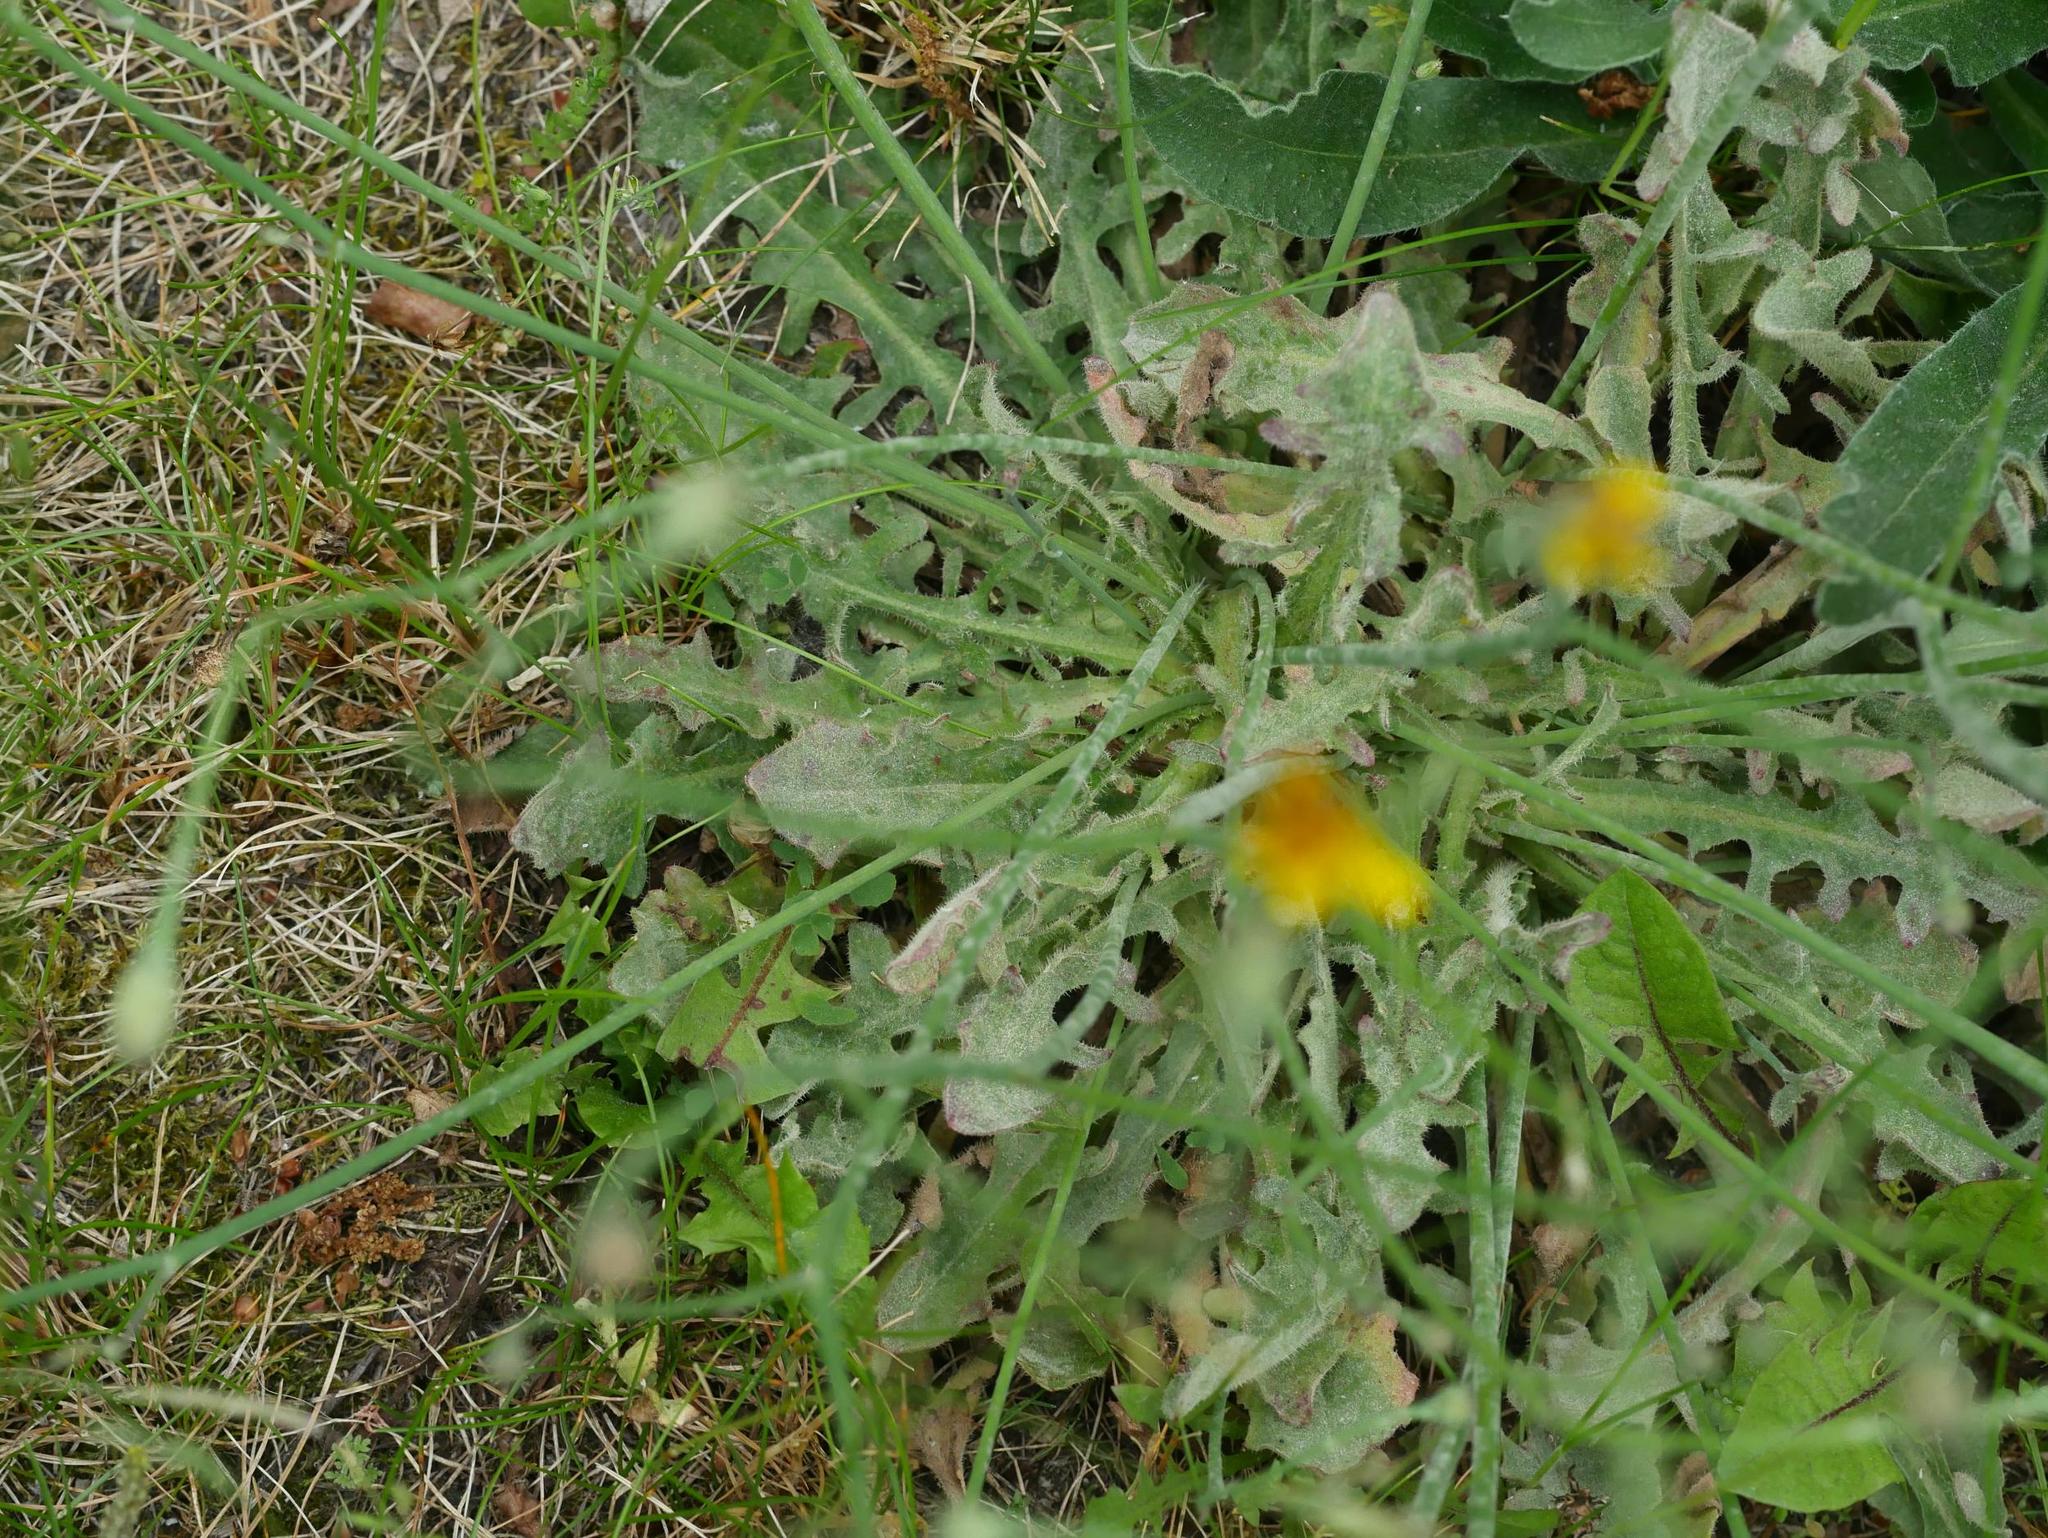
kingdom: Plantae
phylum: Tracheophyta
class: Magnoliopsida
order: Asterales
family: Asteraceae
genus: Scorzoneroides
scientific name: Scorzoneroides autumnalis
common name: Autumn hawkbit
